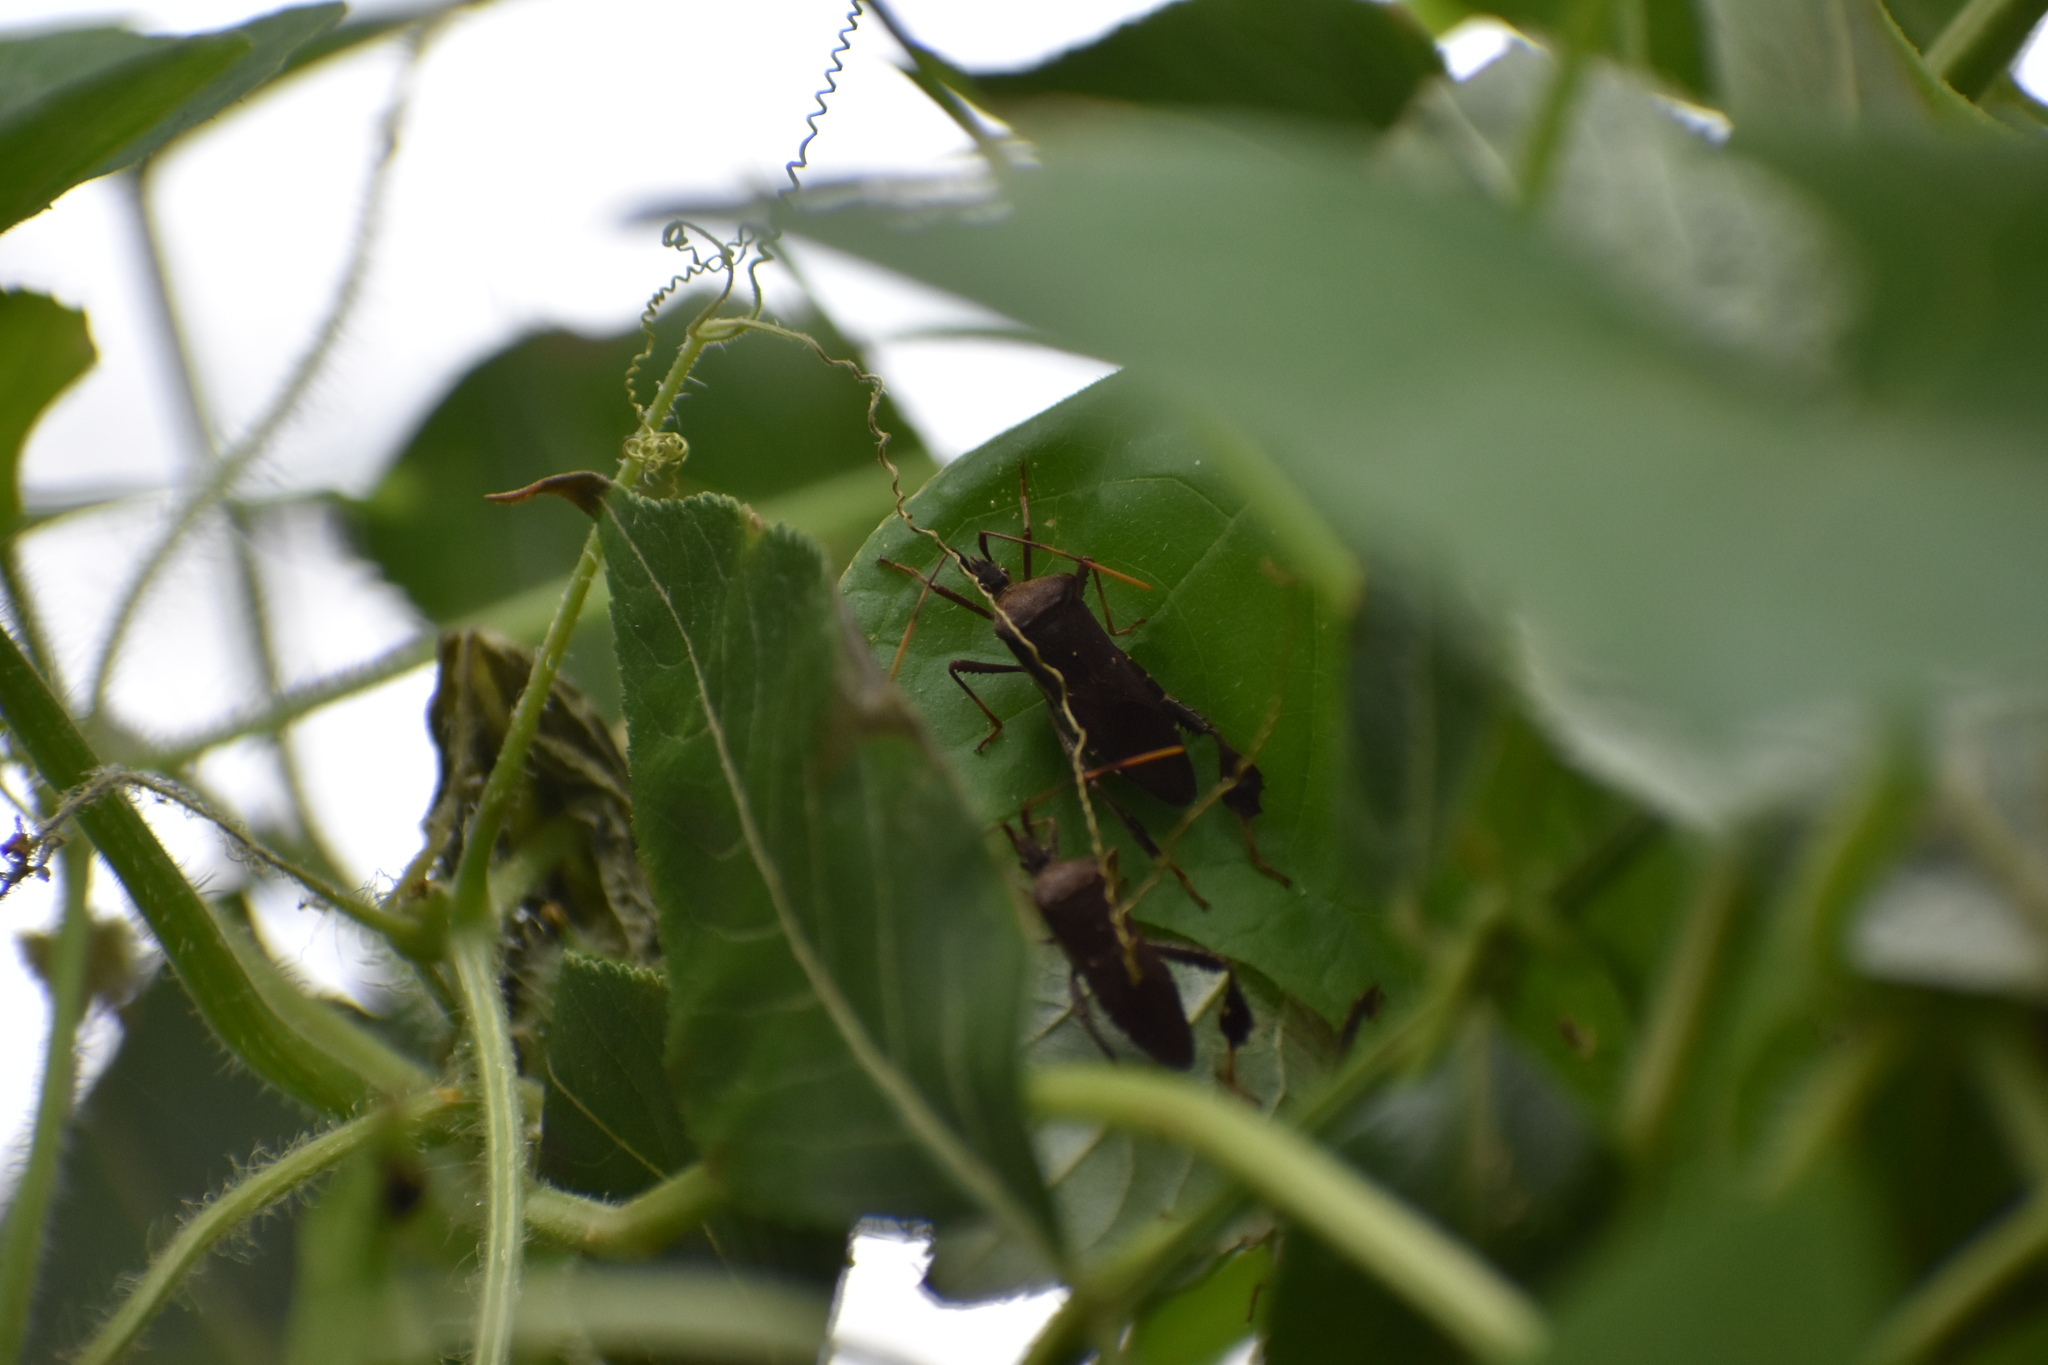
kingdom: Animalia
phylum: Arthropoda
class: Insecta
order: Hemiptera
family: Coreidae
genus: Leptoglossus
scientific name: Leptoglossus oppositus
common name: Northern leaf-footed bug
